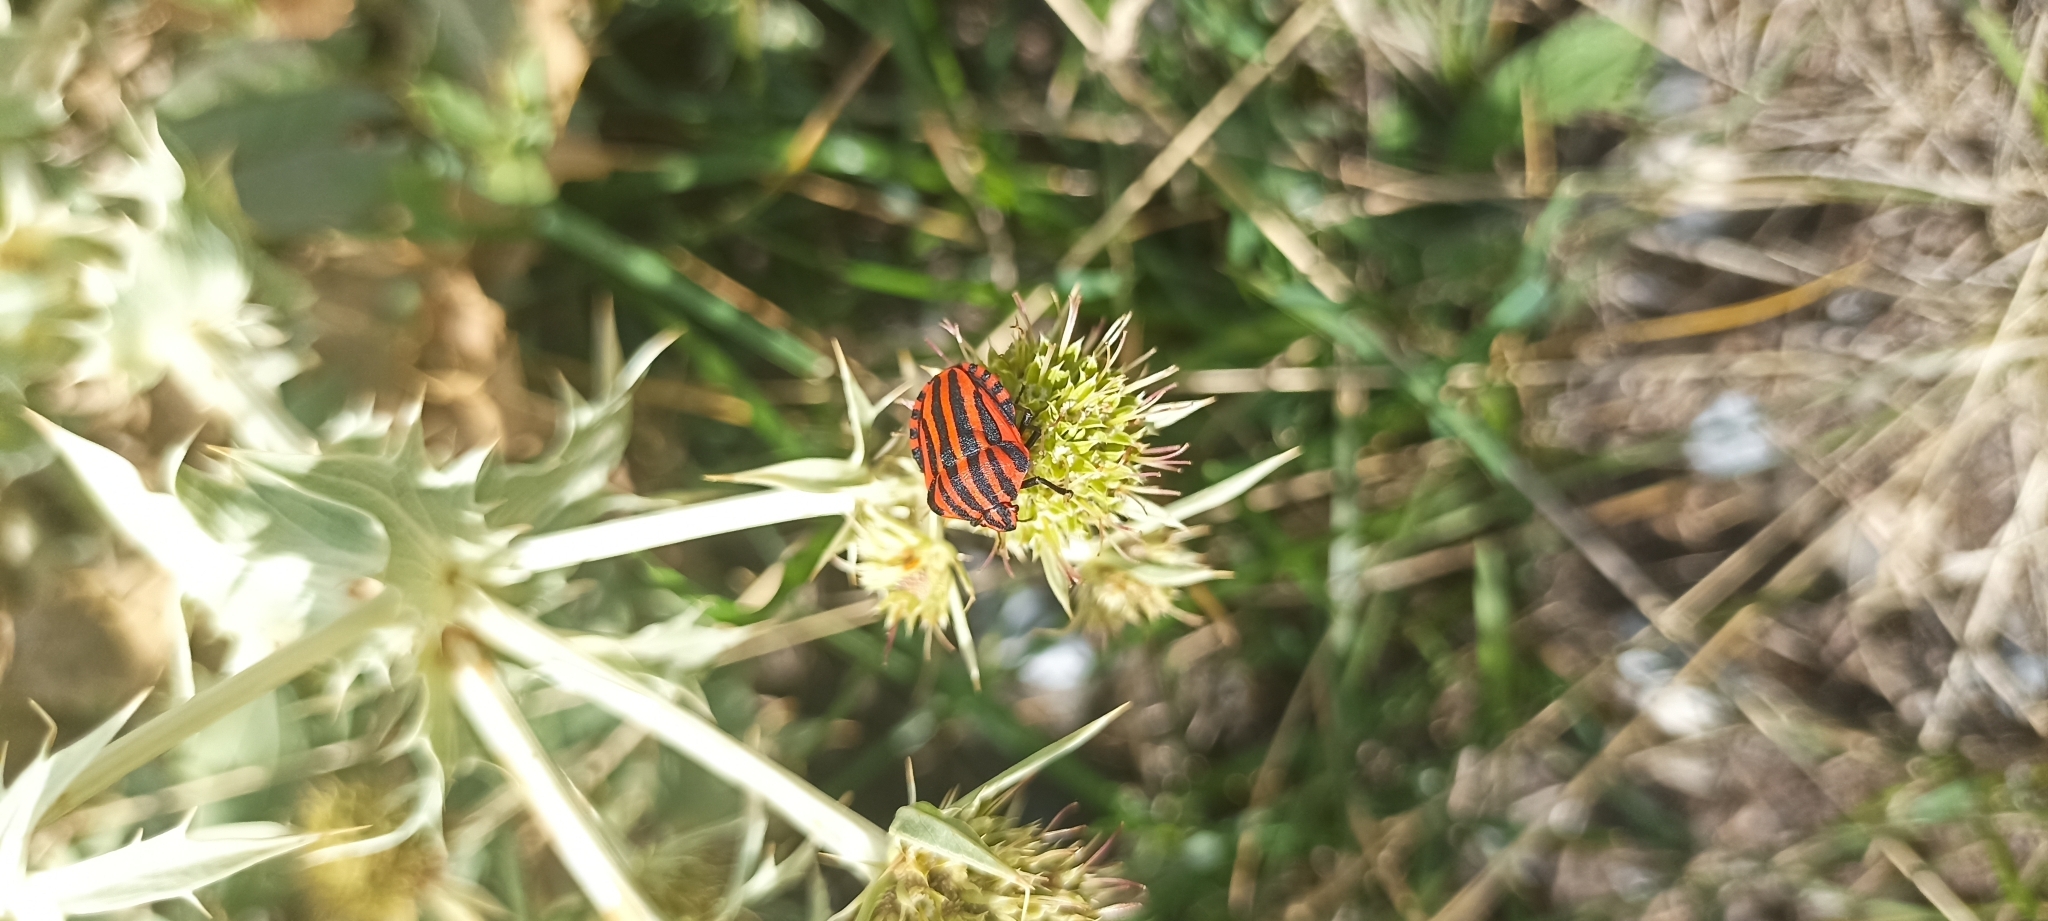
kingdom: Animalia
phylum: Arthropoda
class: Insecta
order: Hemiptera
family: Pentatomidae
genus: Graphosoma
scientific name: Graphosoma italicum
